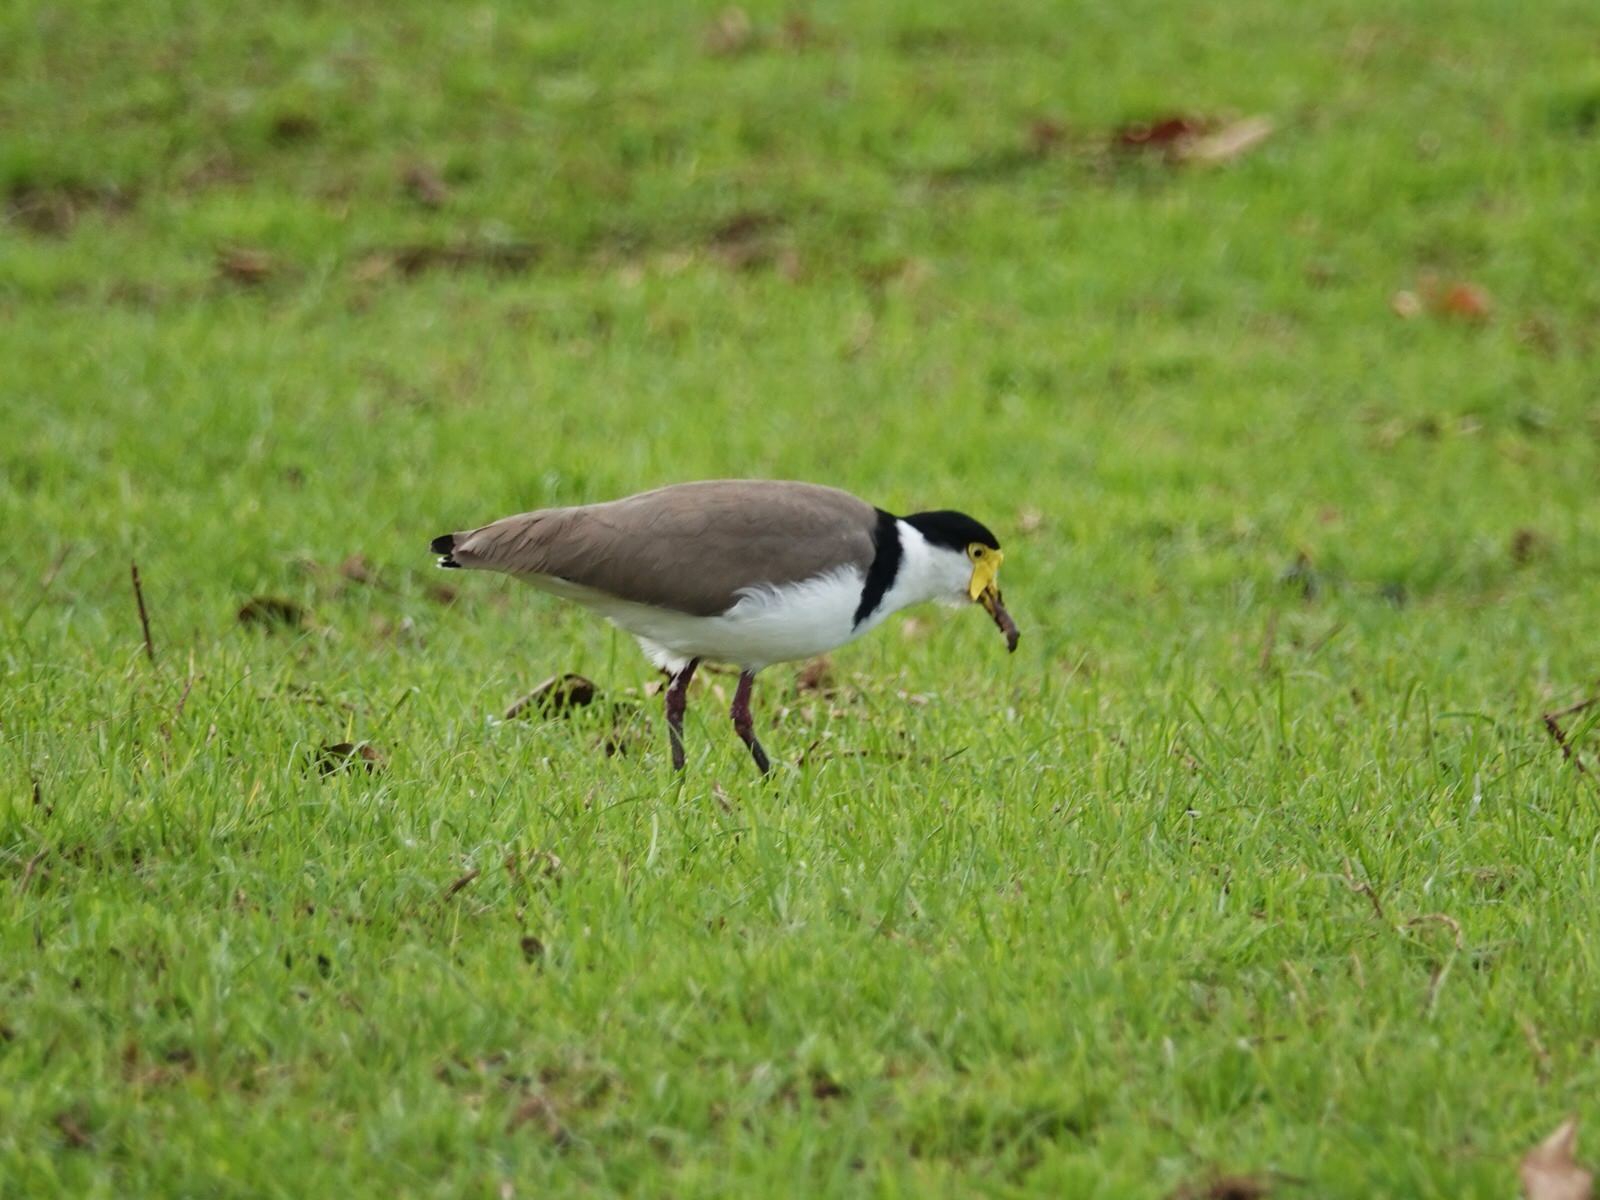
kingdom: Animalia
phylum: Chordata
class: Aves
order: Charadriiformes
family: Charadriidae
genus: Vanellus
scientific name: Vanellus miles
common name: Masked lapwing
